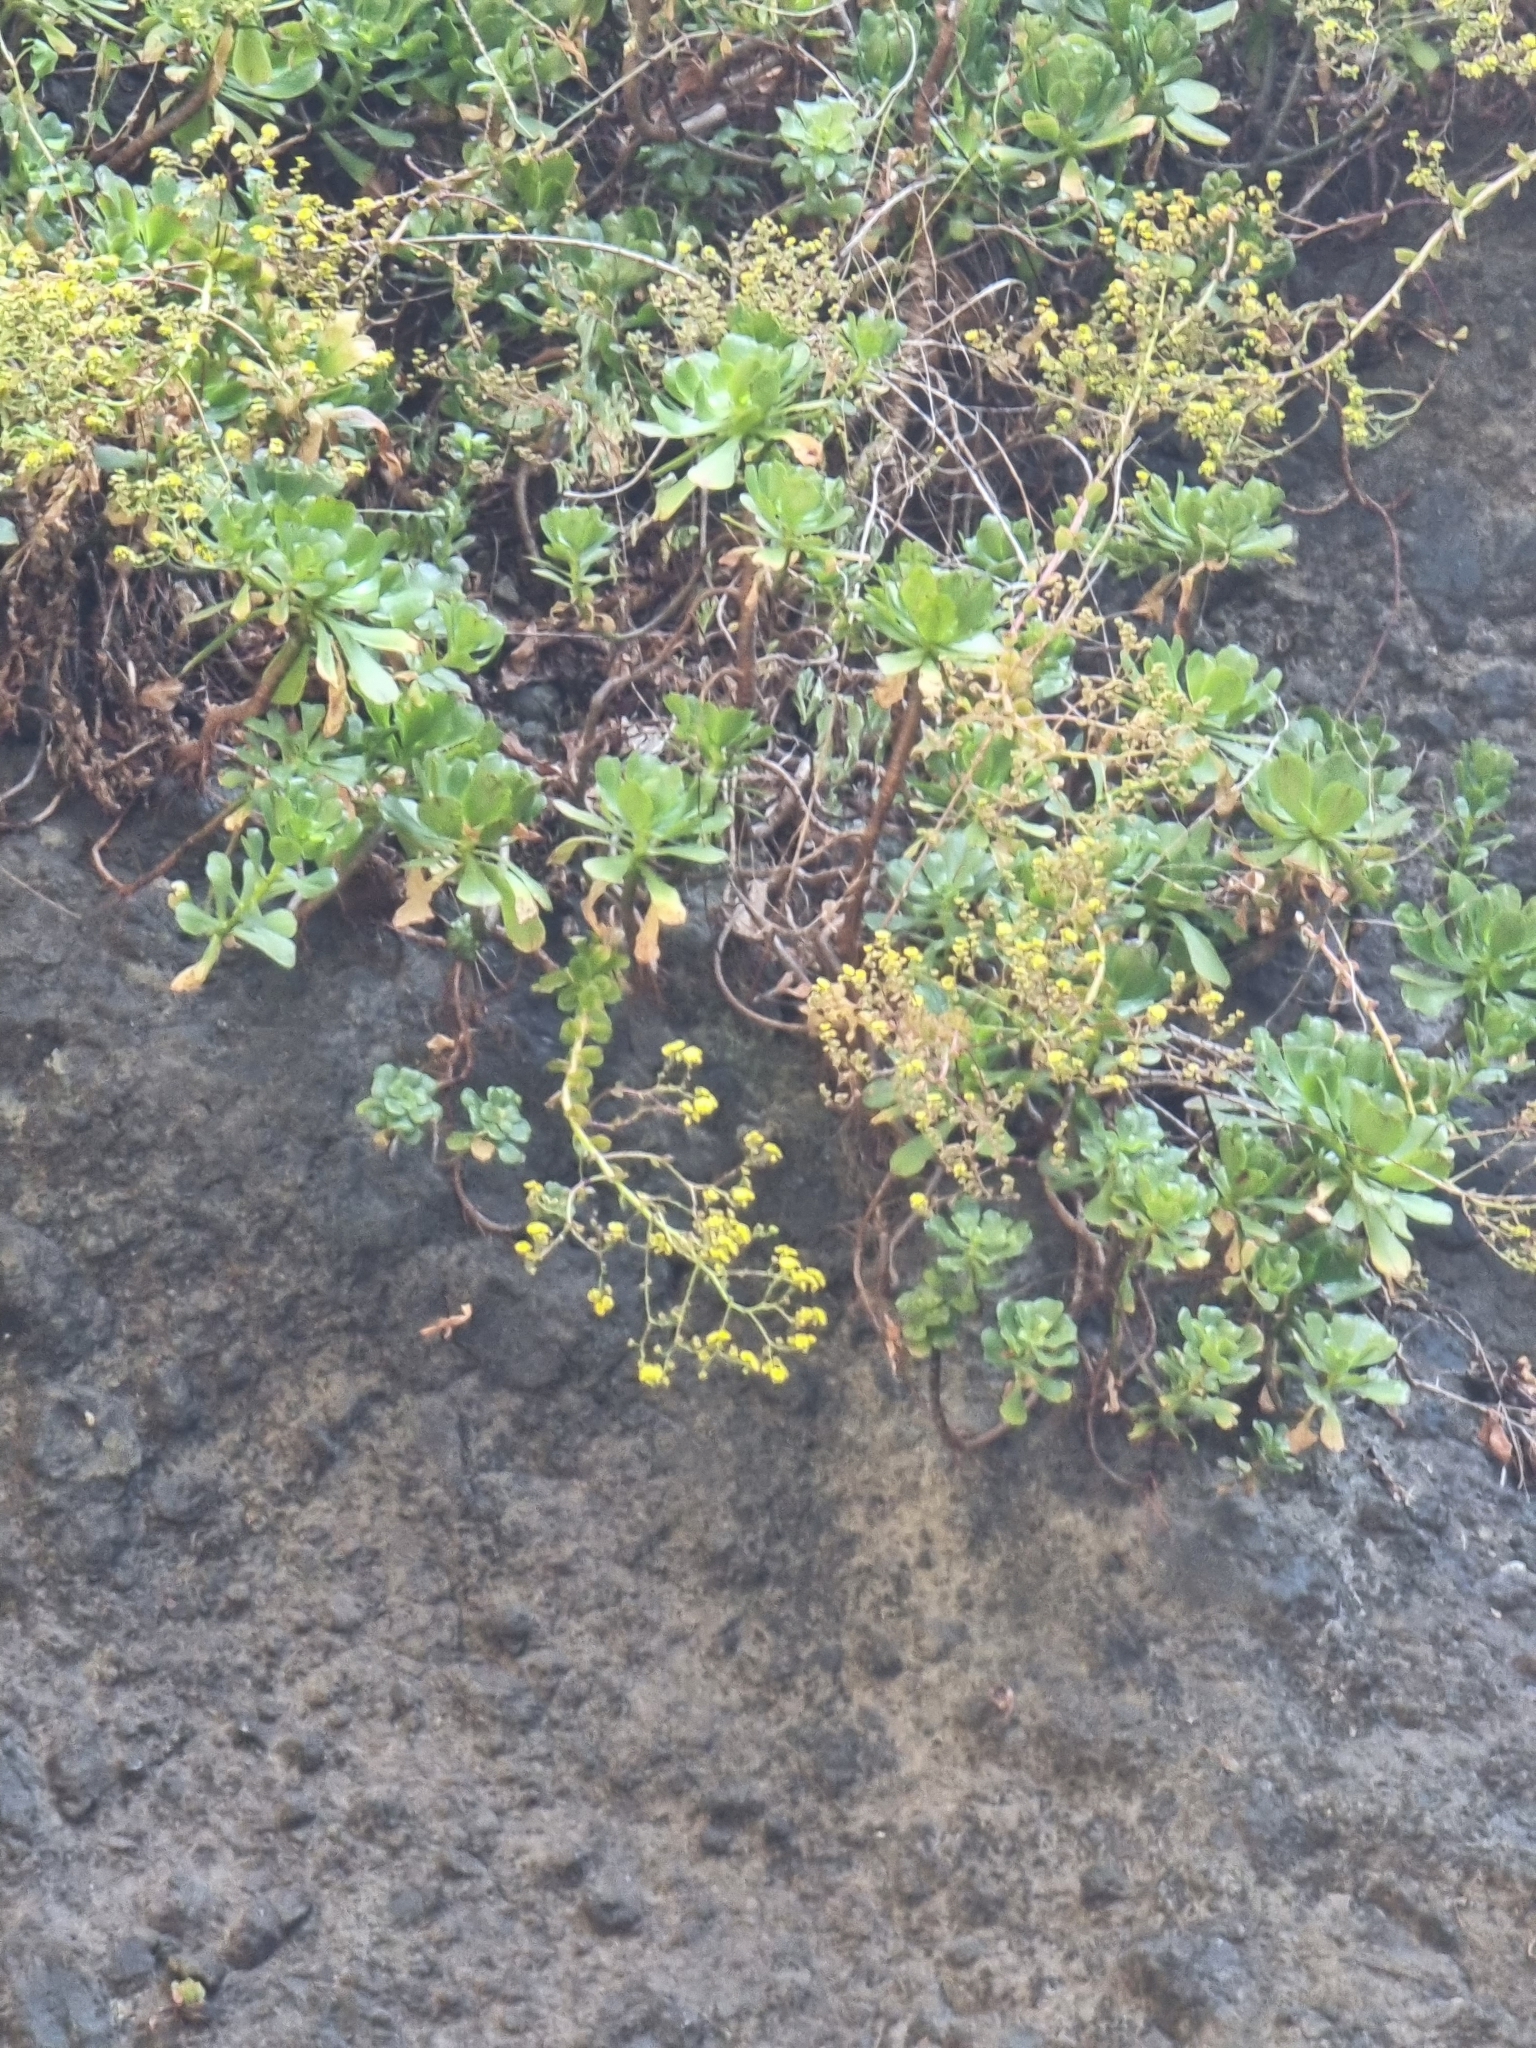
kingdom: Plantae
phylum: Tracheophyta
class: Magnoliopsida
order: Saxifragales
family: Crassulaceae
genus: Aeonium
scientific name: Aeonium glutinosum
